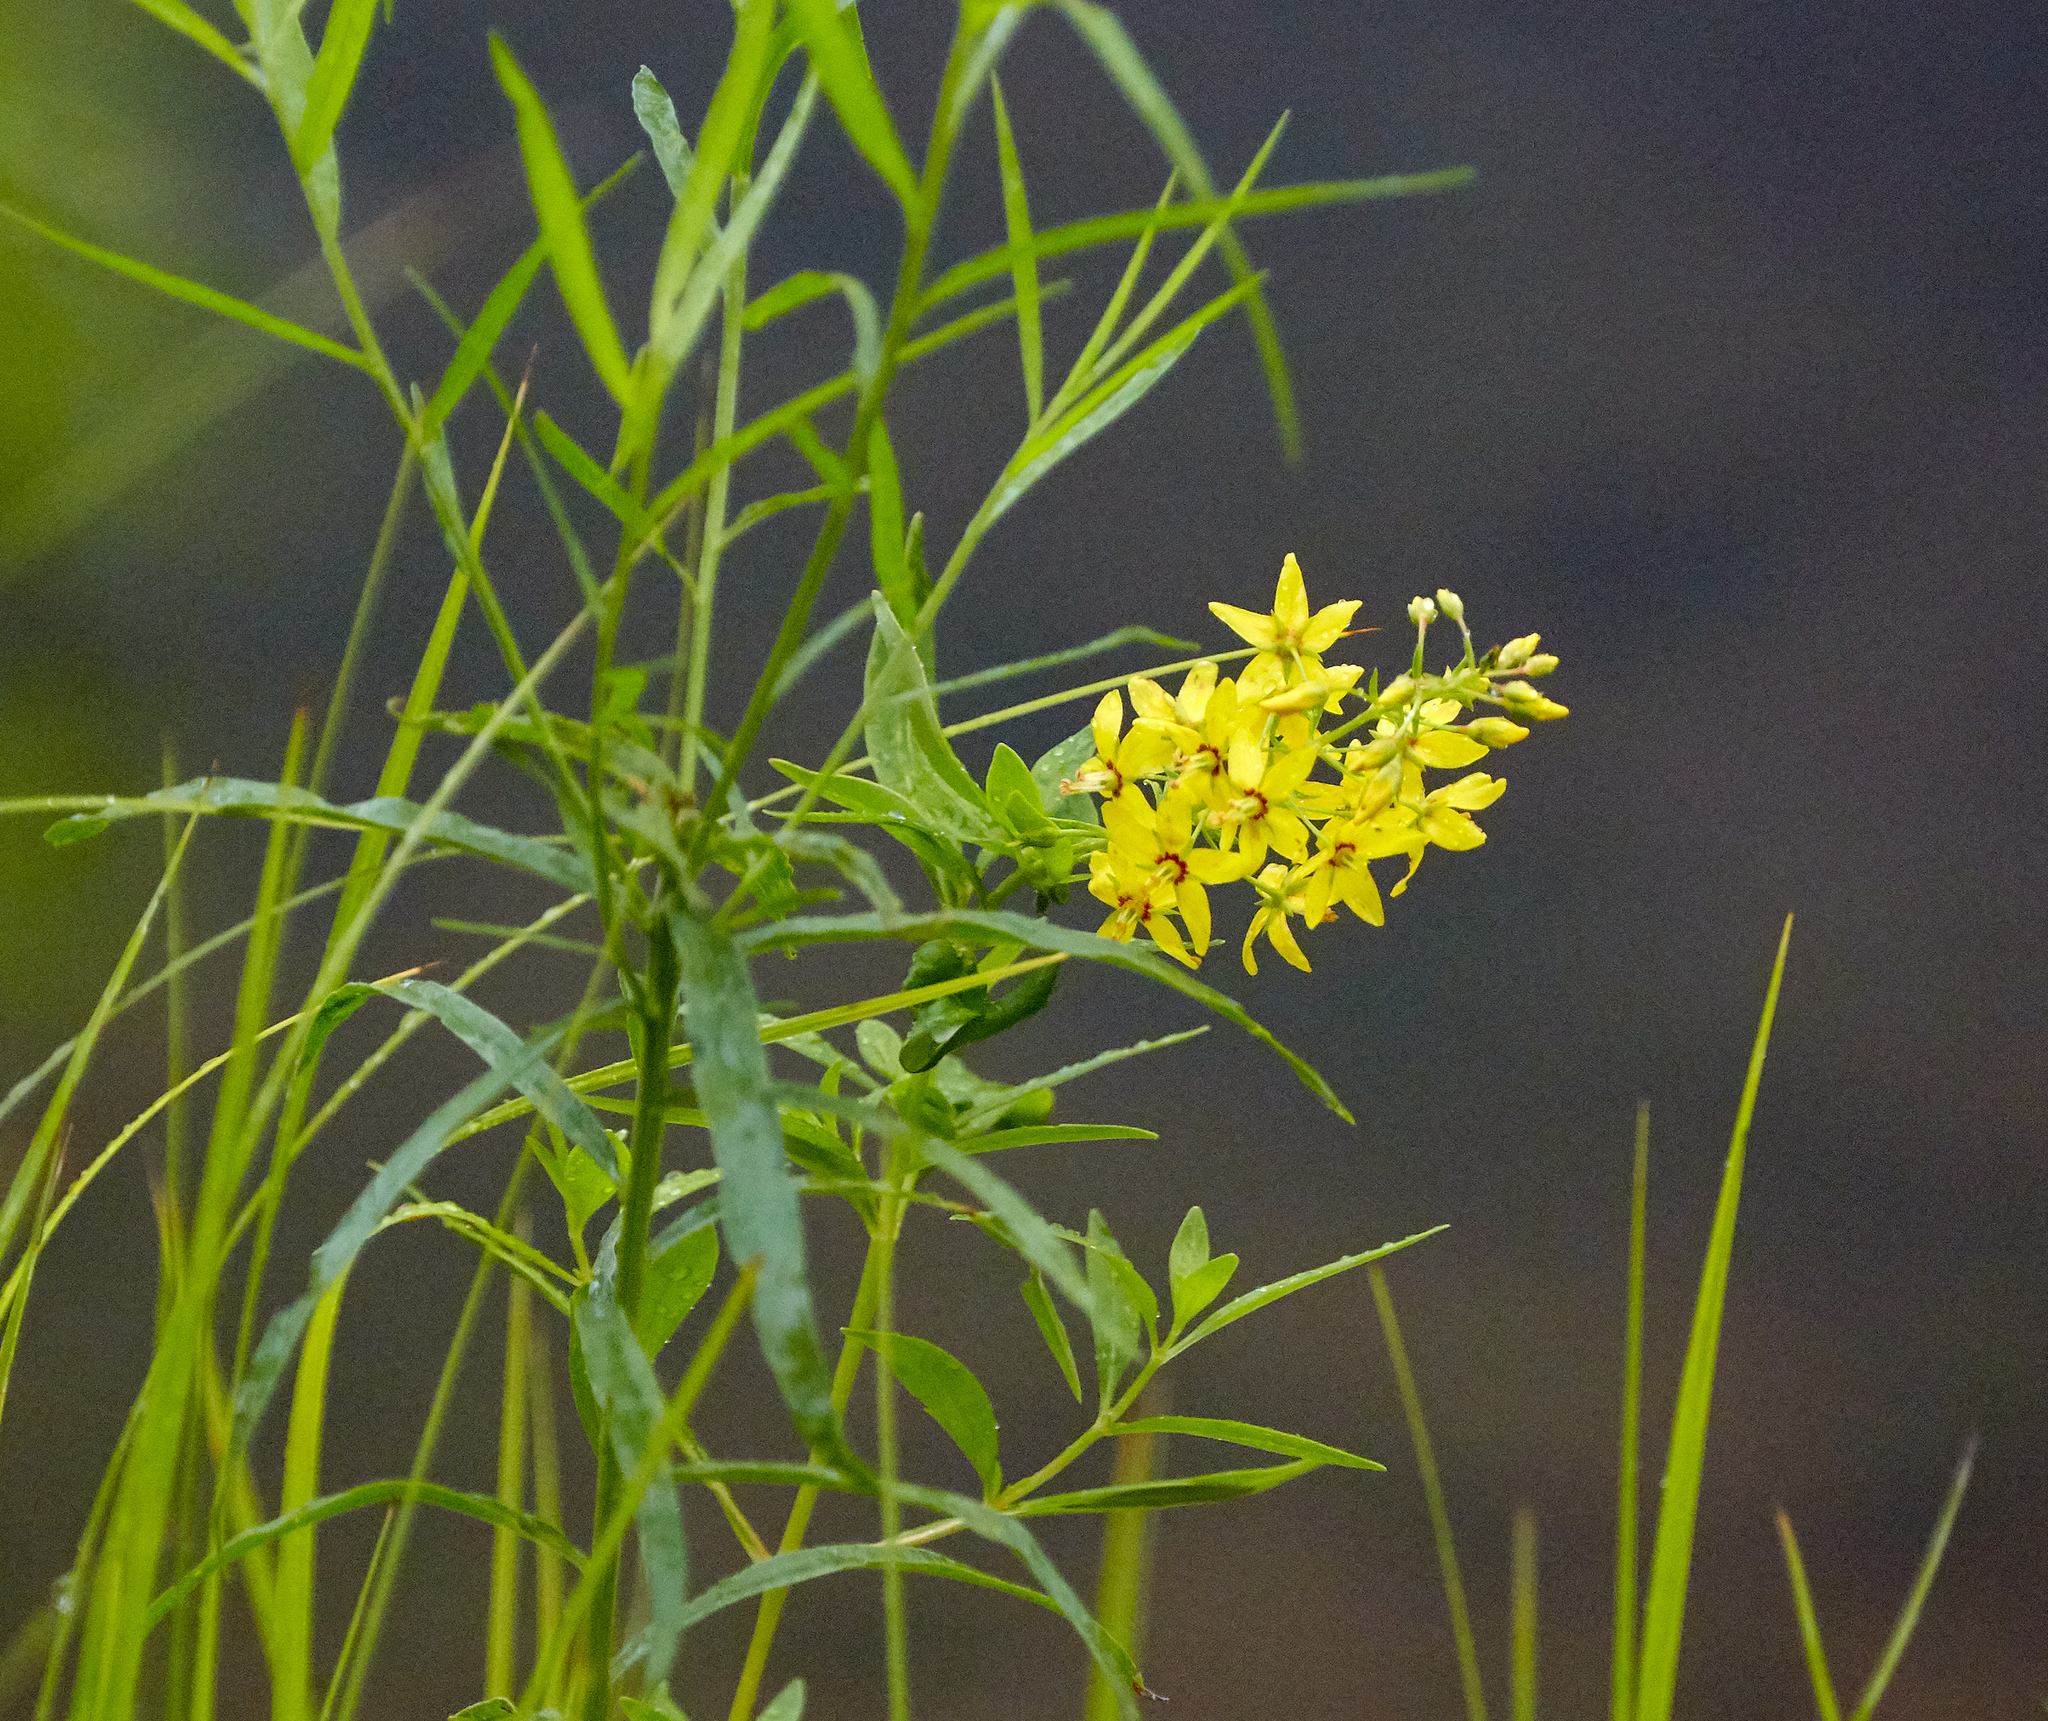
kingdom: Plantae
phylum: Tracheophyta
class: Magnoliopsida
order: Ericales
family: Primulaceae
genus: Lysimachia
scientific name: Lysimachia terrestris
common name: Lake loosestrife
